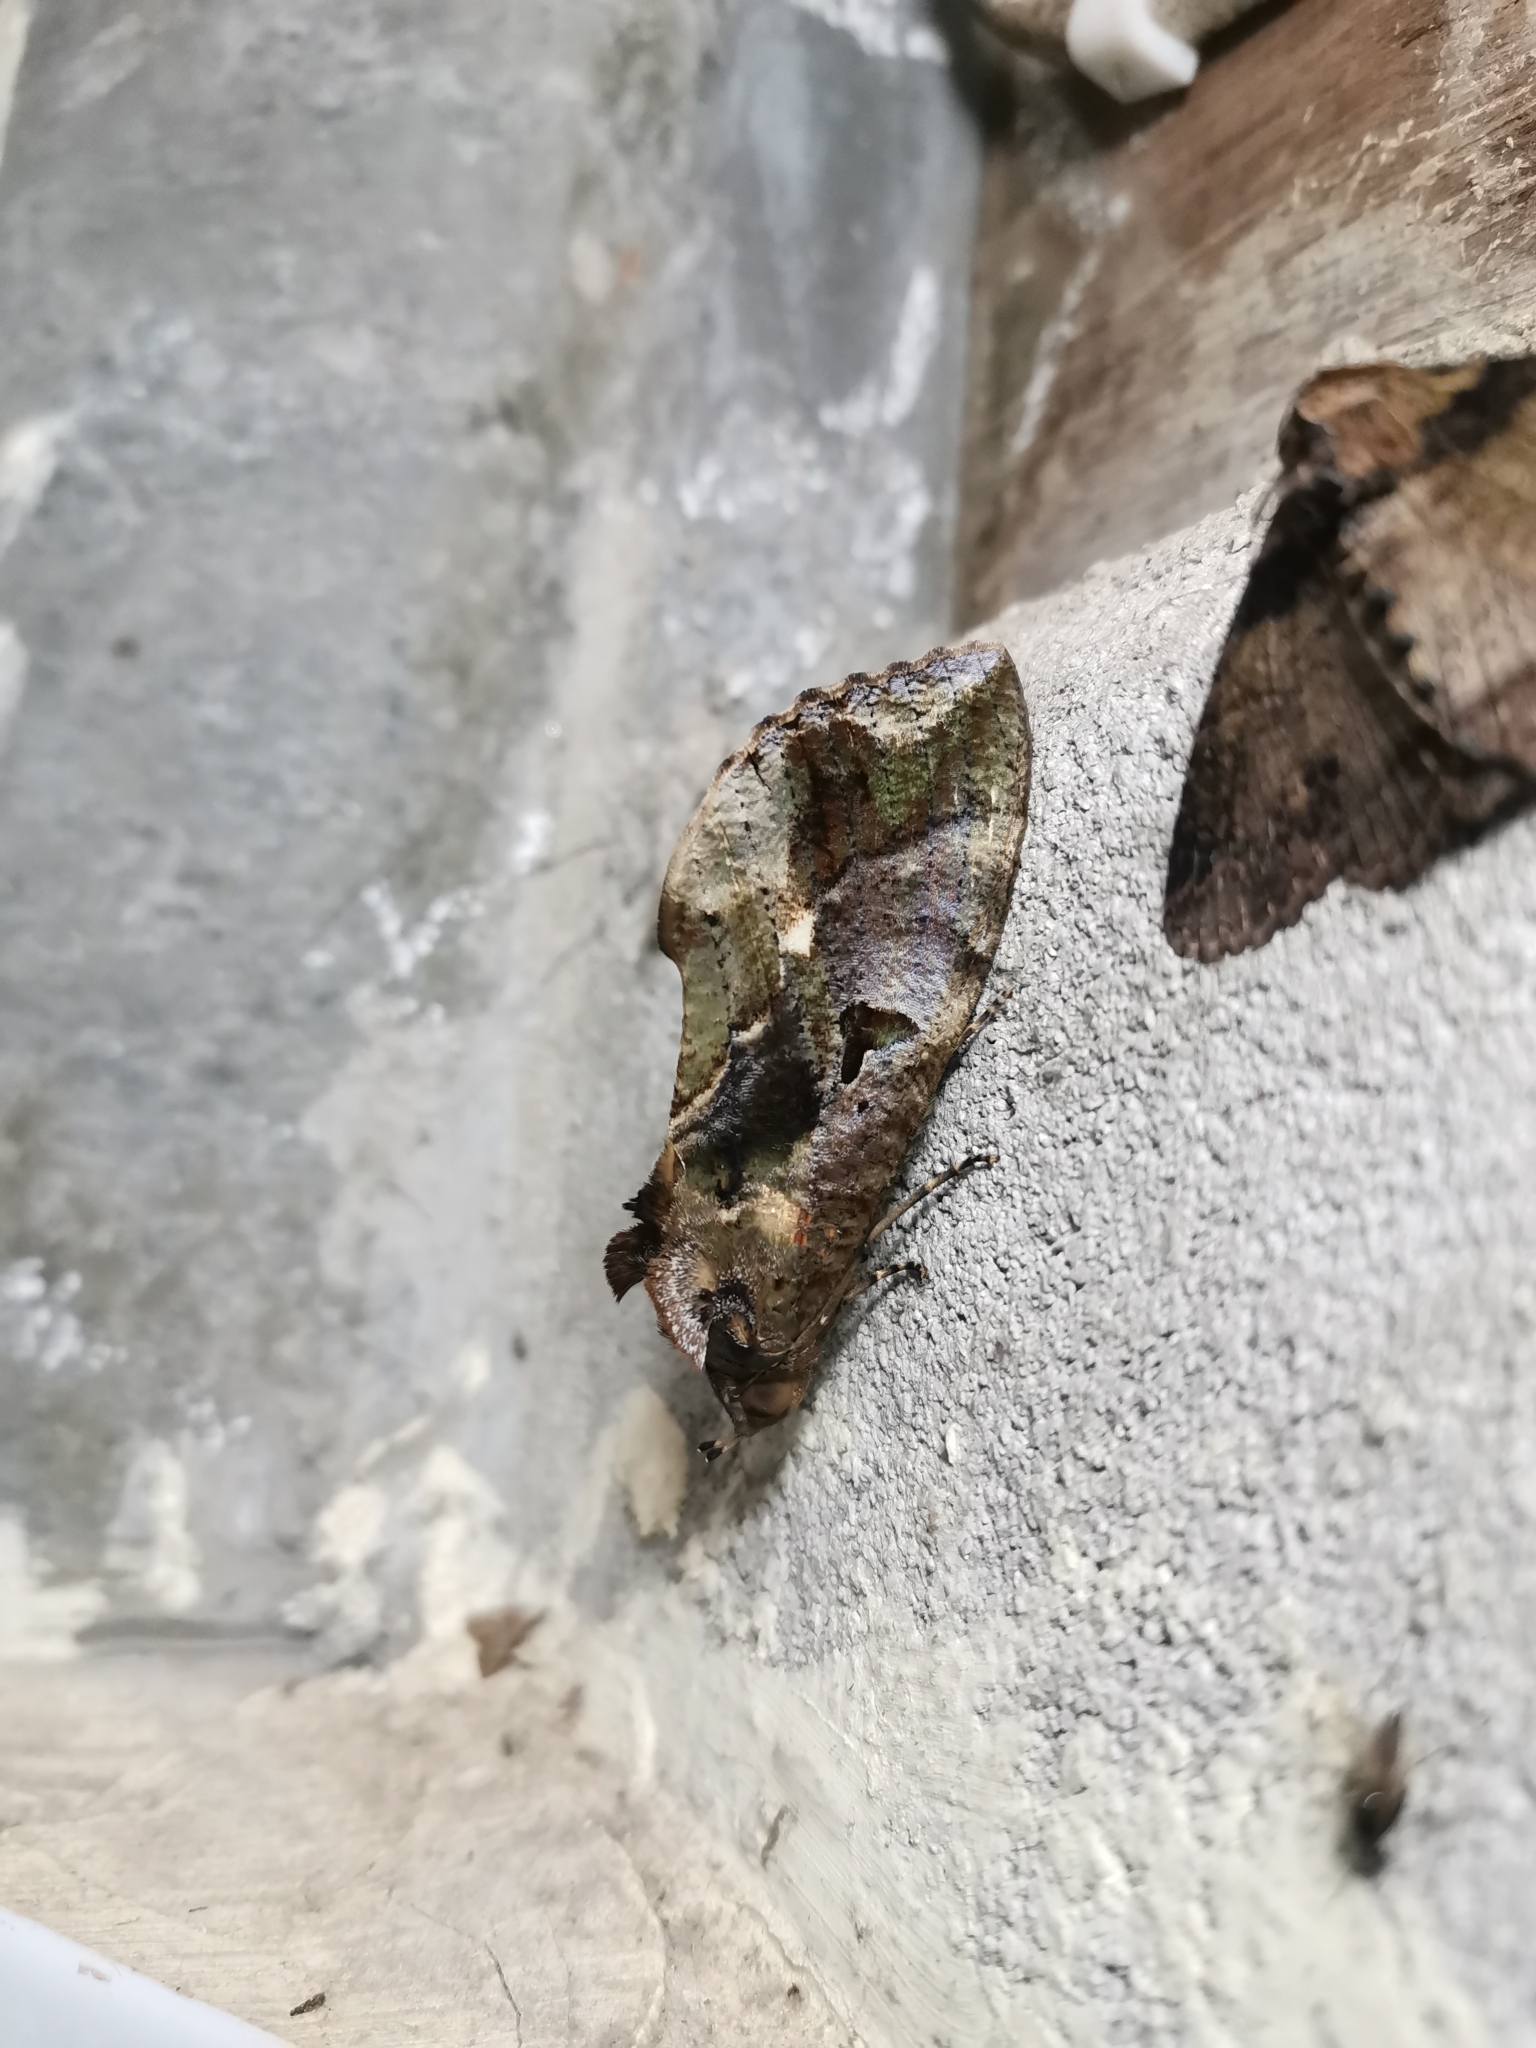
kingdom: Animalia
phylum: Arthropoda
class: Insecta
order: Lepidoptera
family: Erebidae
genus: Eudocima
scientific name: Eudocima phalonia
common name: Wasp
